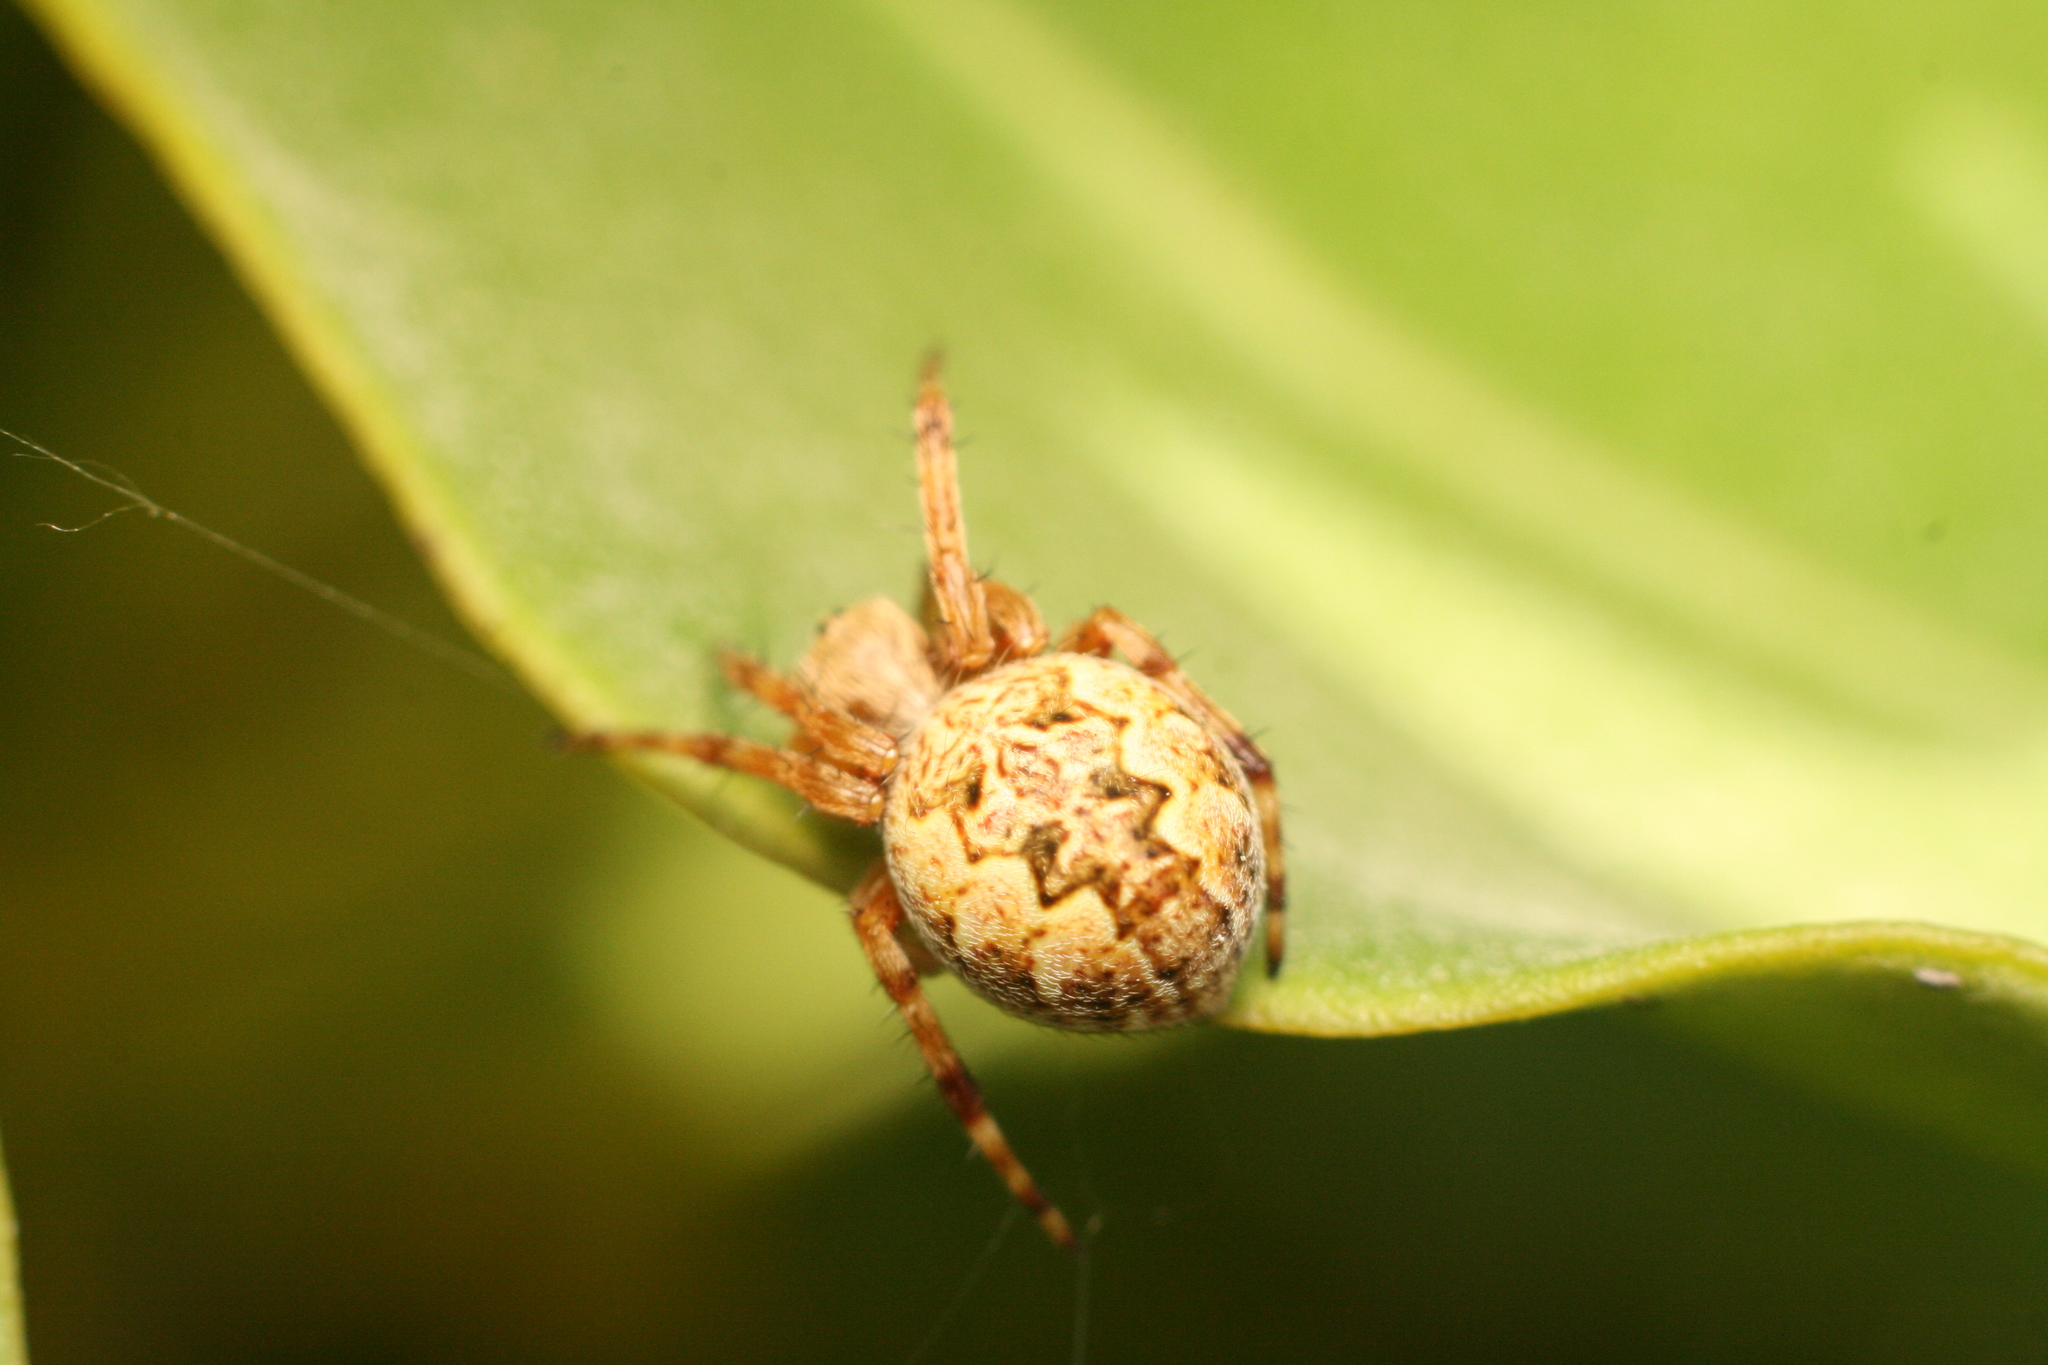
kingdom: Animalia
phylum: Arthropoda
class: Arachnida
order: Araneae
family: Araneidae
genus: Salsa
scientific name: Salsa fuliginata
